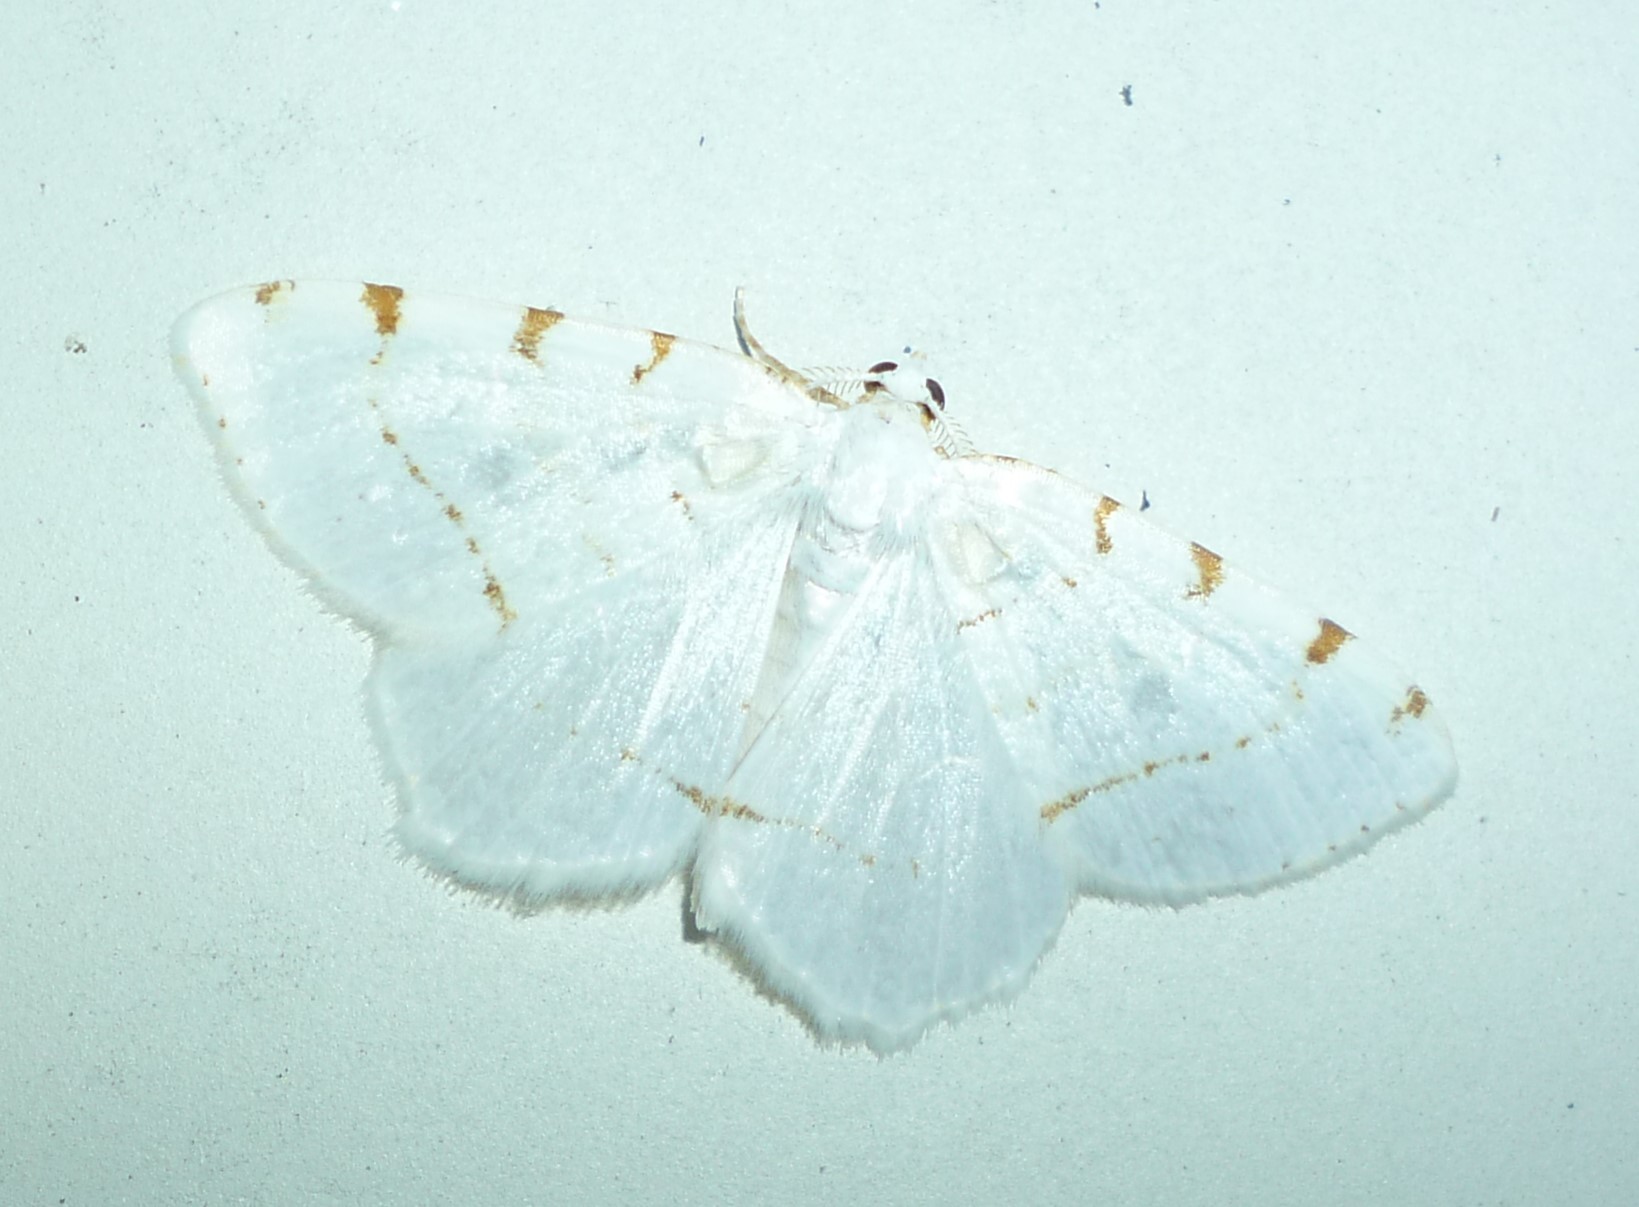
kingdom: Animalia
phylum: Arthropoda
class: Insecta
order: Lepidoptera
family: Geometridae
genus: Macaria
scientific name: Macaria pustularia
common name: Lesser maple spanworm moth
